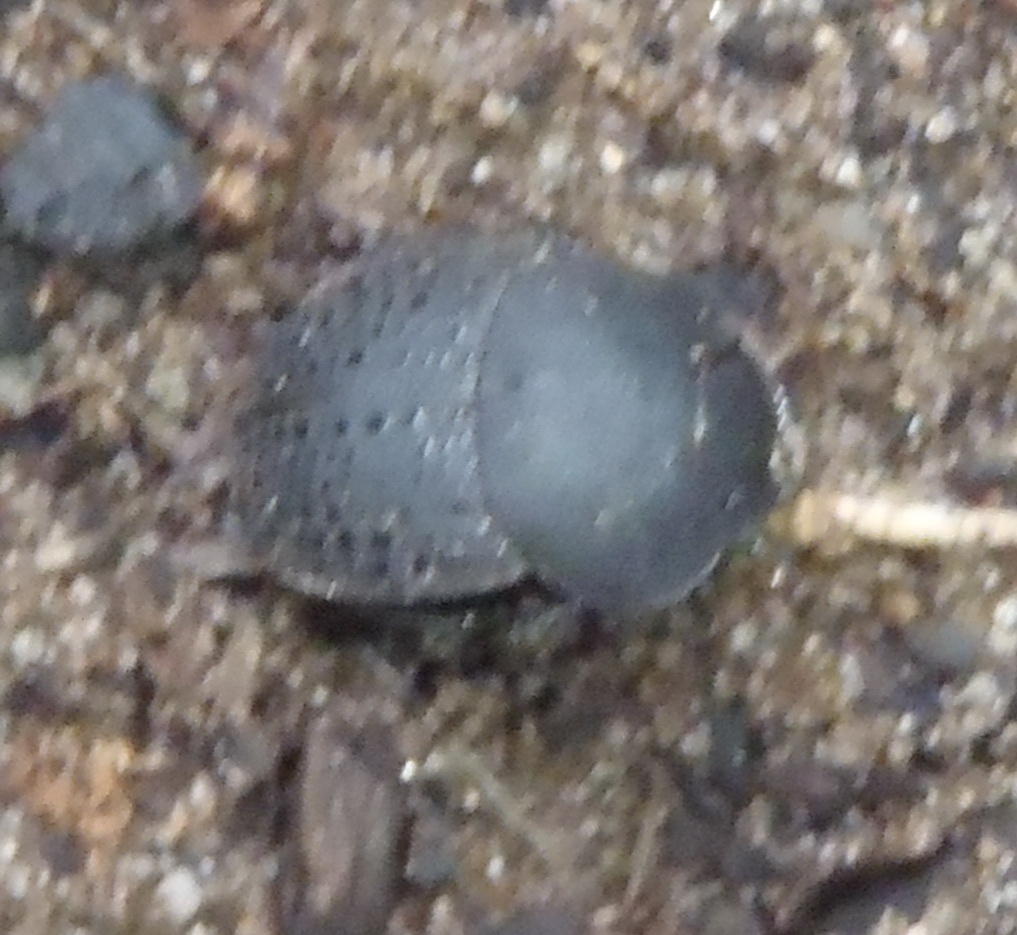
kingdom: Animalia
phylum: Arthropoda
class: Insecta
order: Coleoptera
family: Scarabaeidae
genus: Epirinus
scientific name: Epirinus flagellatus
